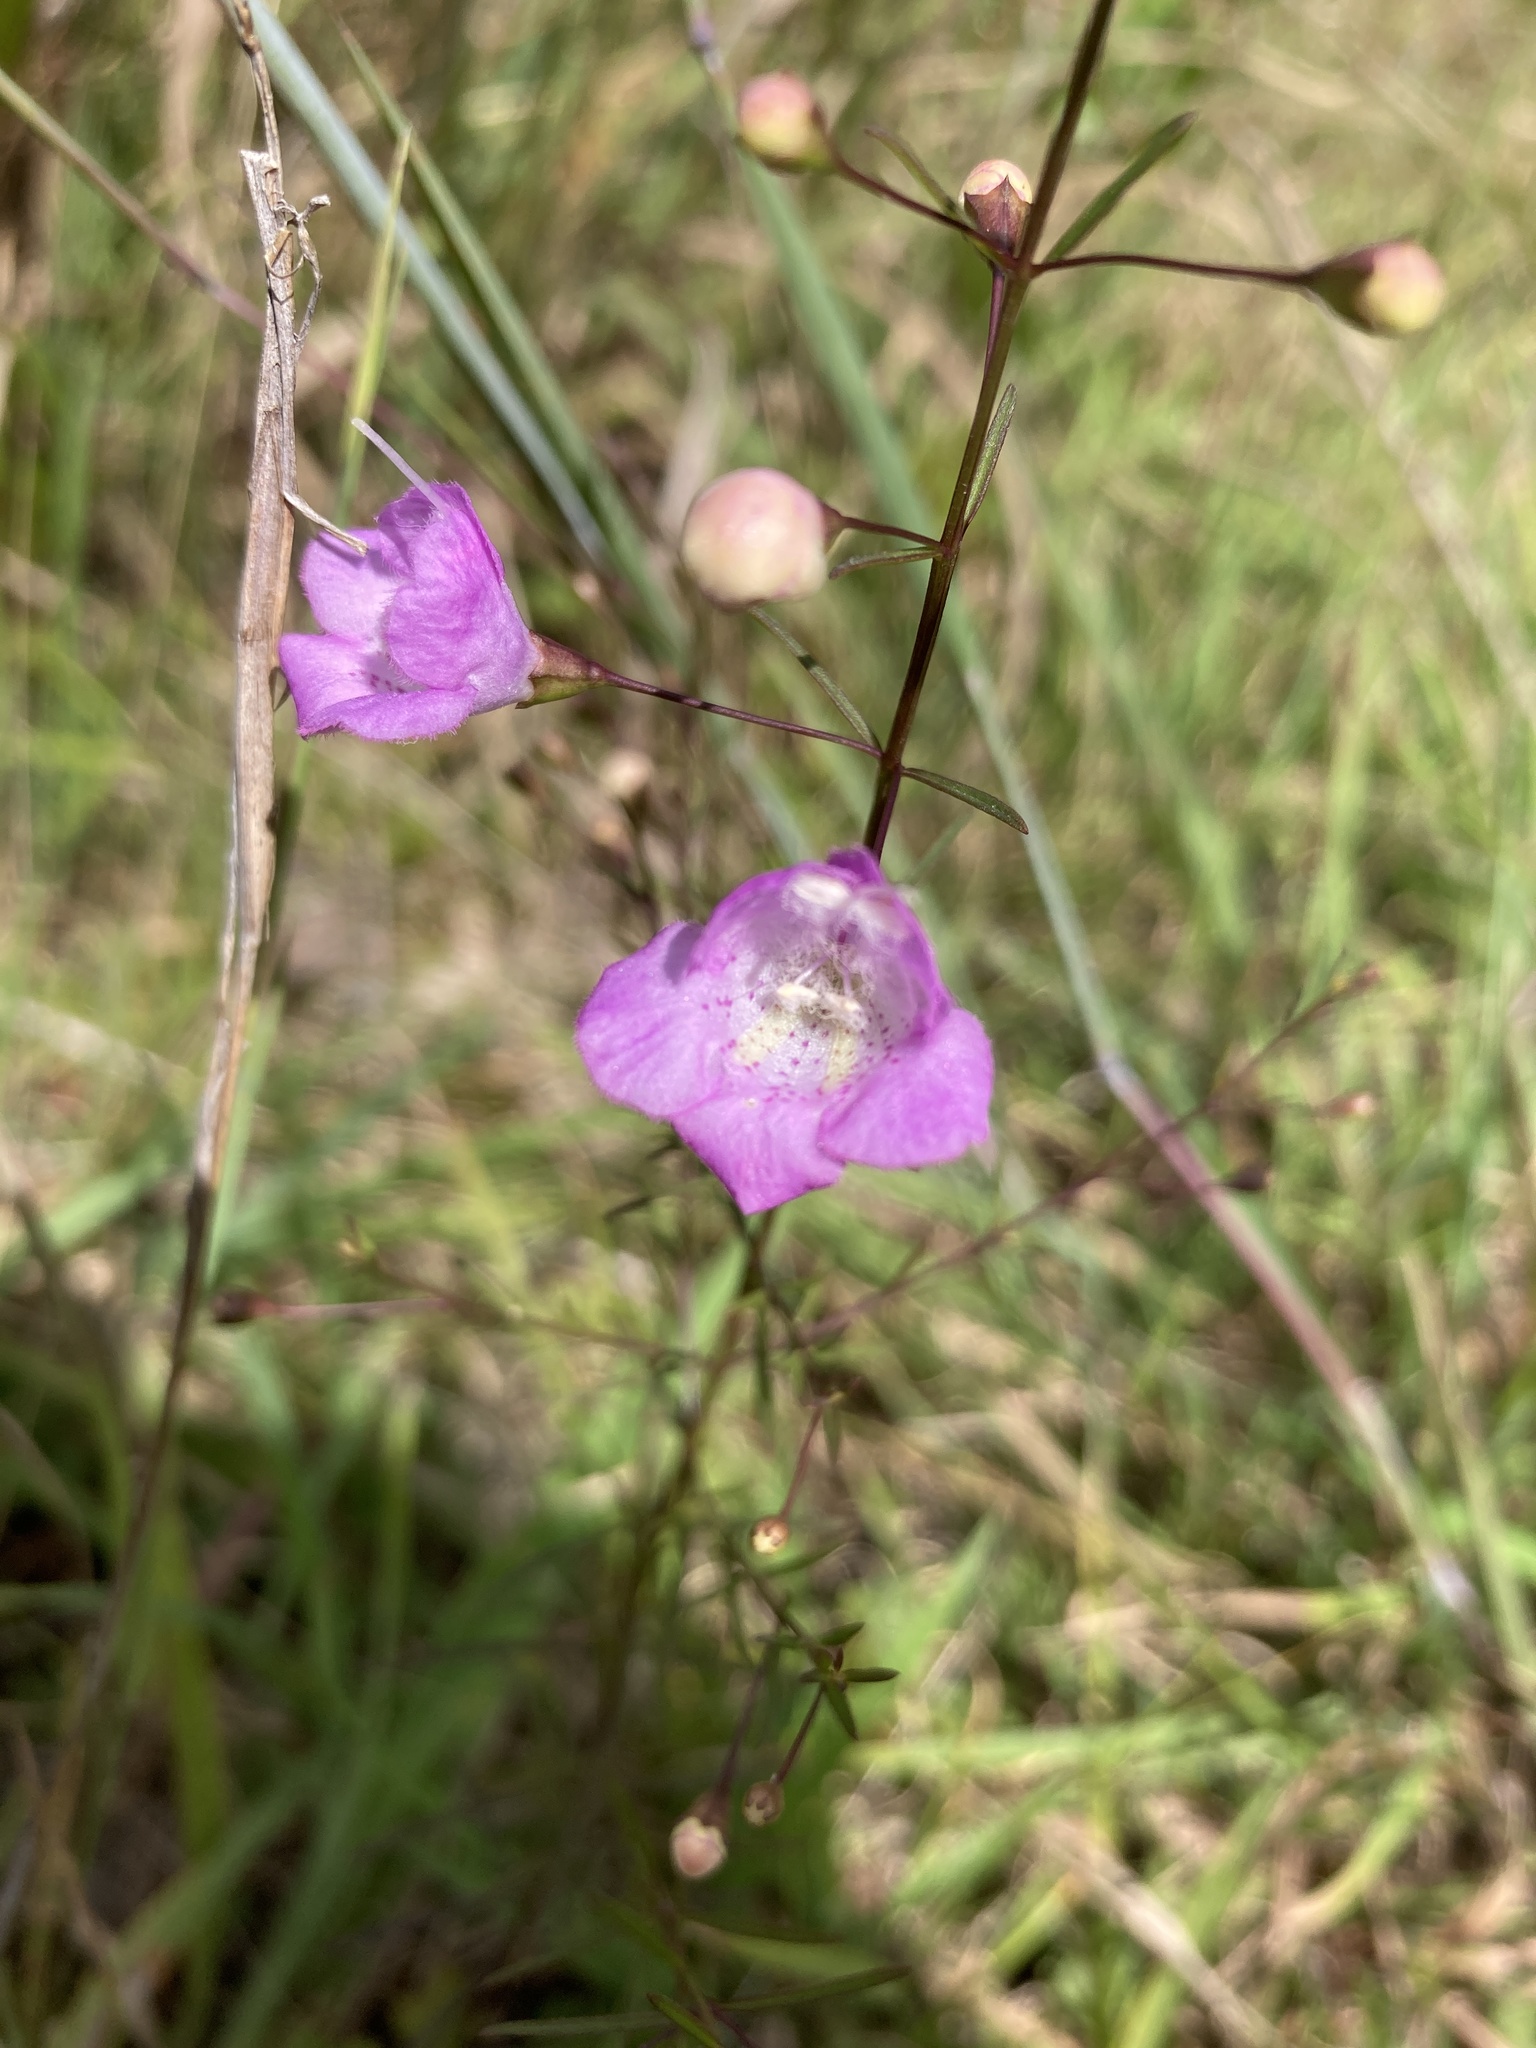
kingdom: Plantae
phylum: Tracheophyta
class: Magnoliopsida
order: Lamiales
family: Orobanchaceae
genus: Agalinis
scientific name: Agalinis tenuifolia
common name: Slender agalinis
